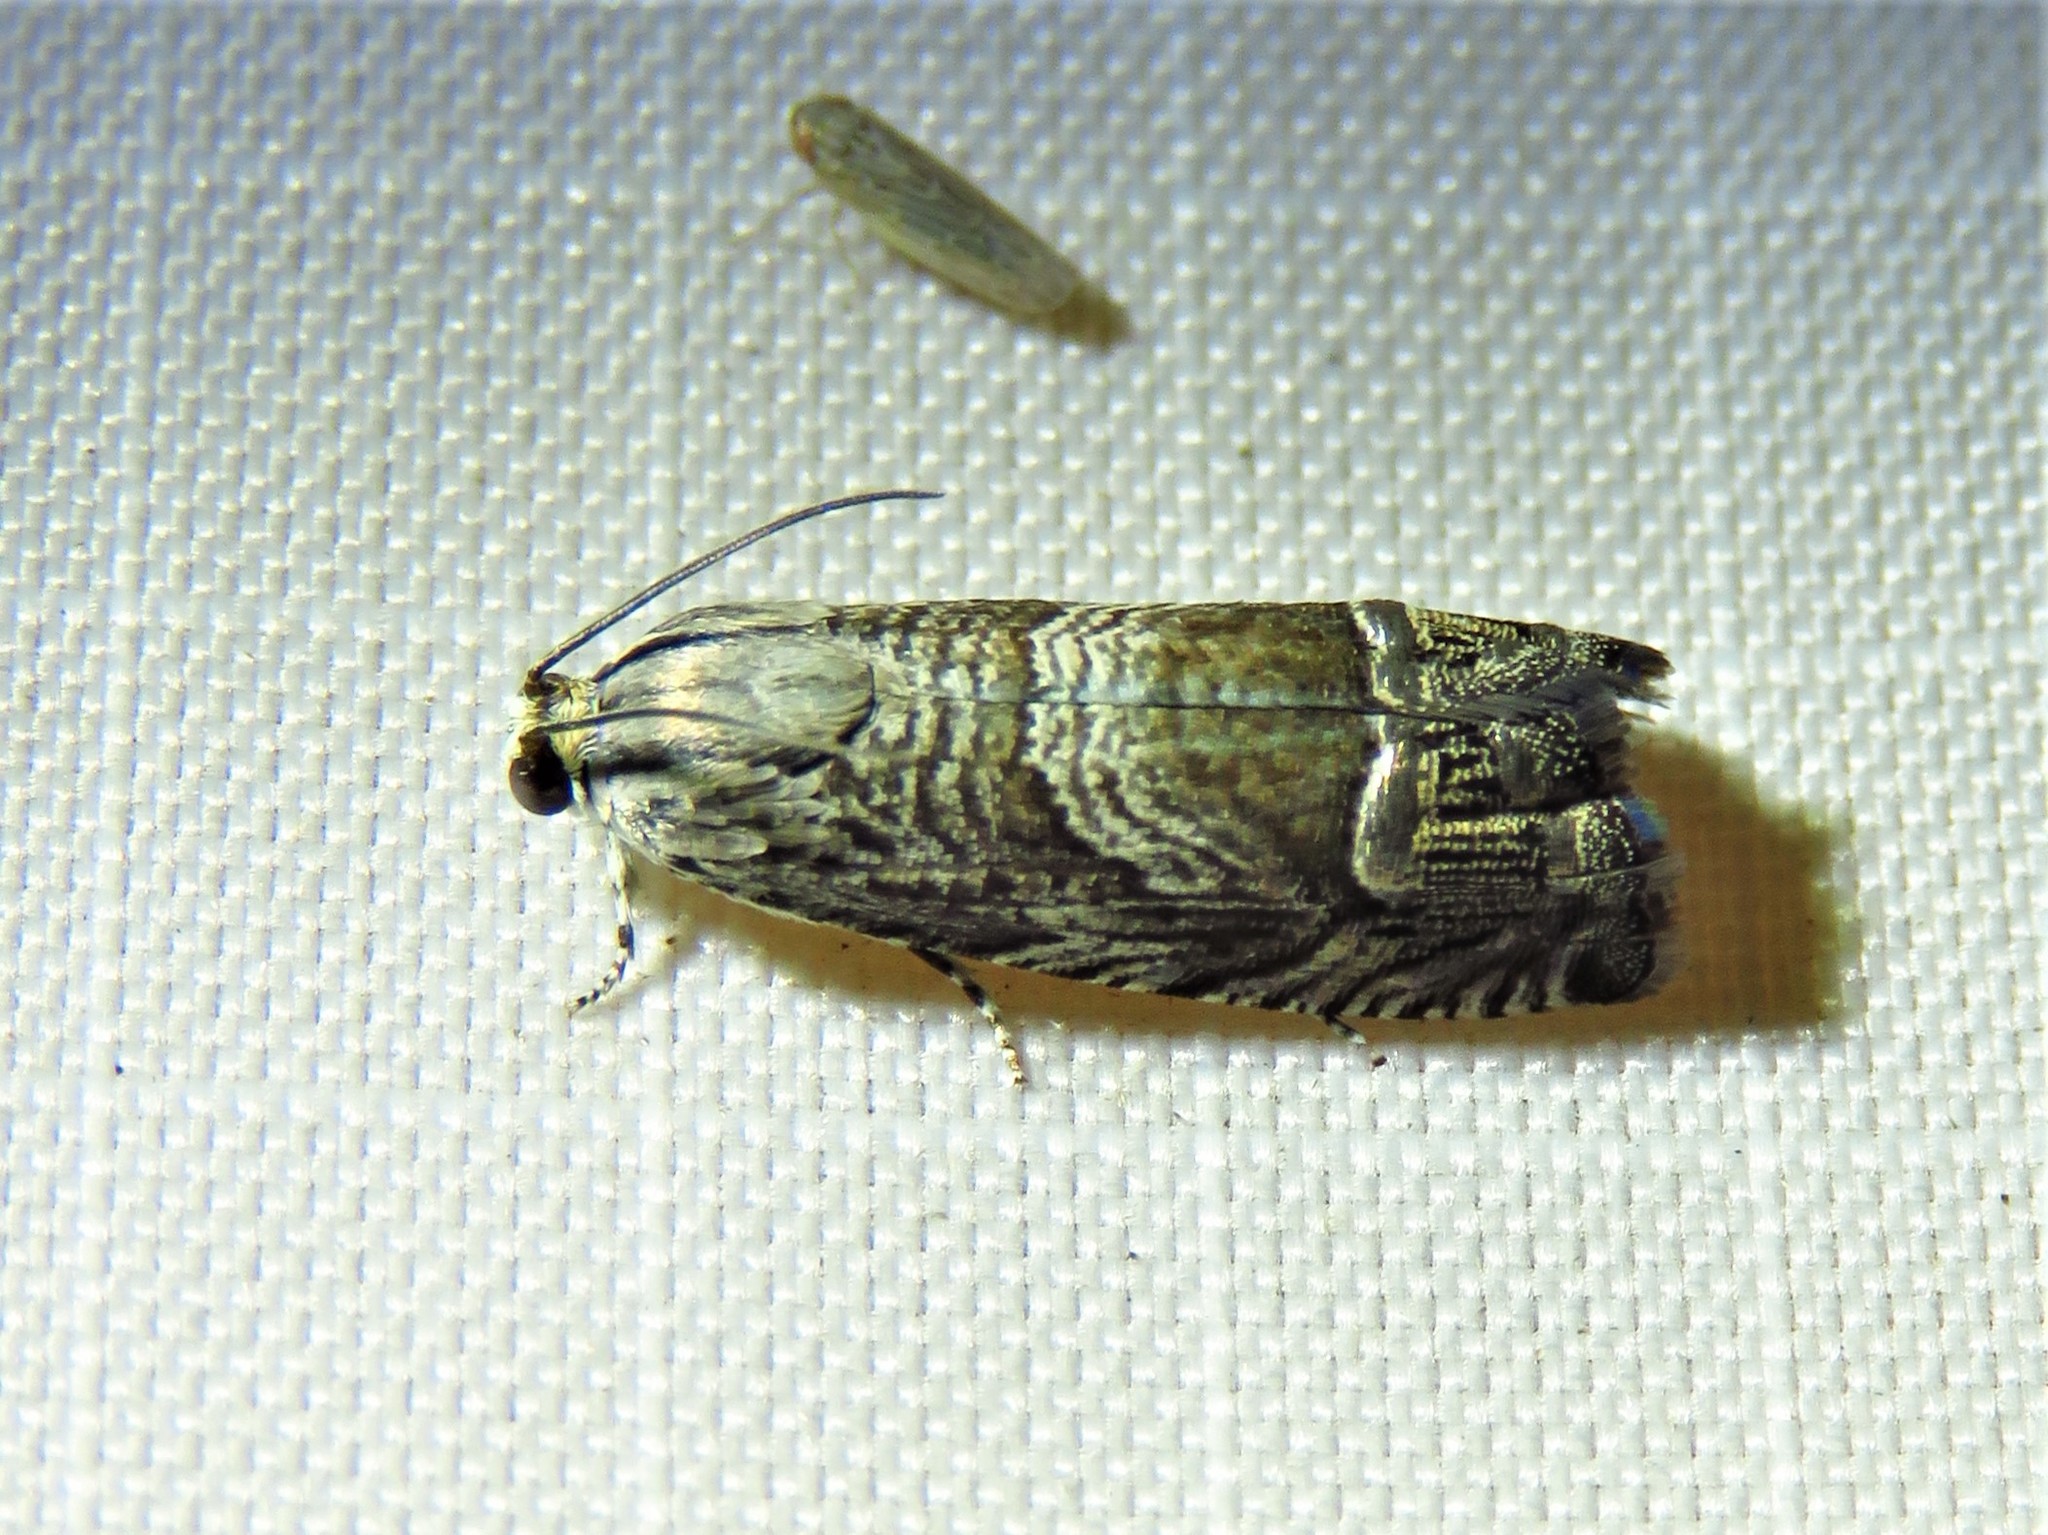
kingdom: Animalia
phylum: Arthropoda
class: Insecta
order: Lepidoptera
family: Tortricidae
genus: Ofatulena
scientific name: Ofatulena duodecemstriata
